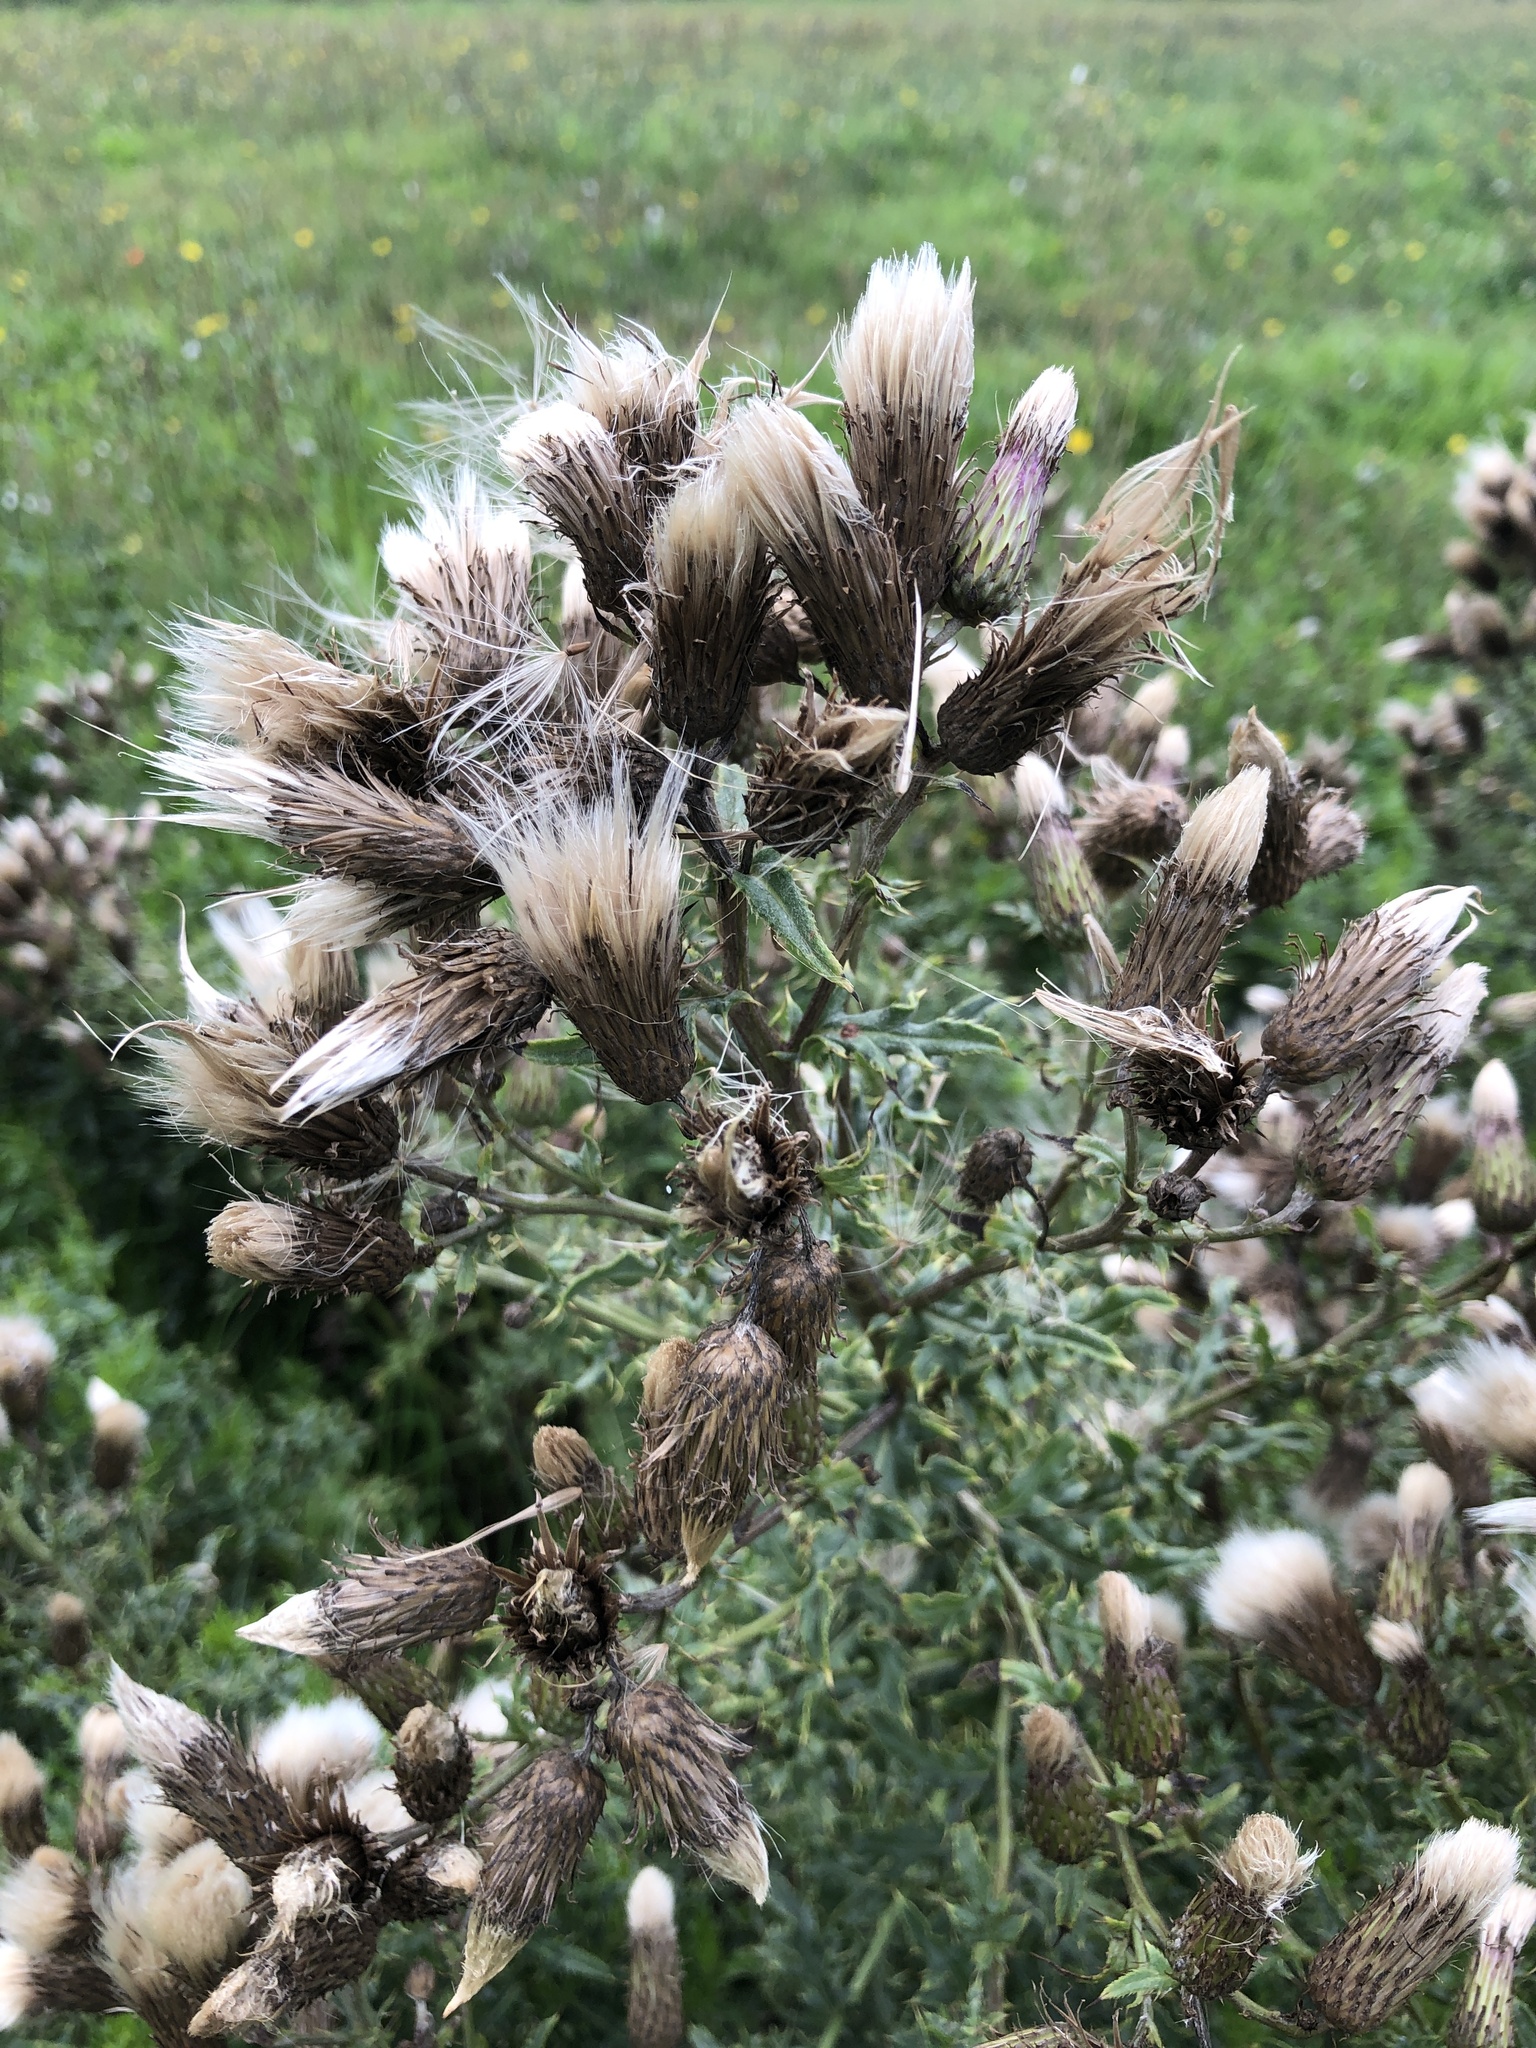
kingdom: Plantae
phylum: Tracheophyta
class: Magnoliopsida
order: Asterales
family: Asteraceae
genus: Cirsium
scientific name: Cirsium arvense
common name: Creeping thistle
